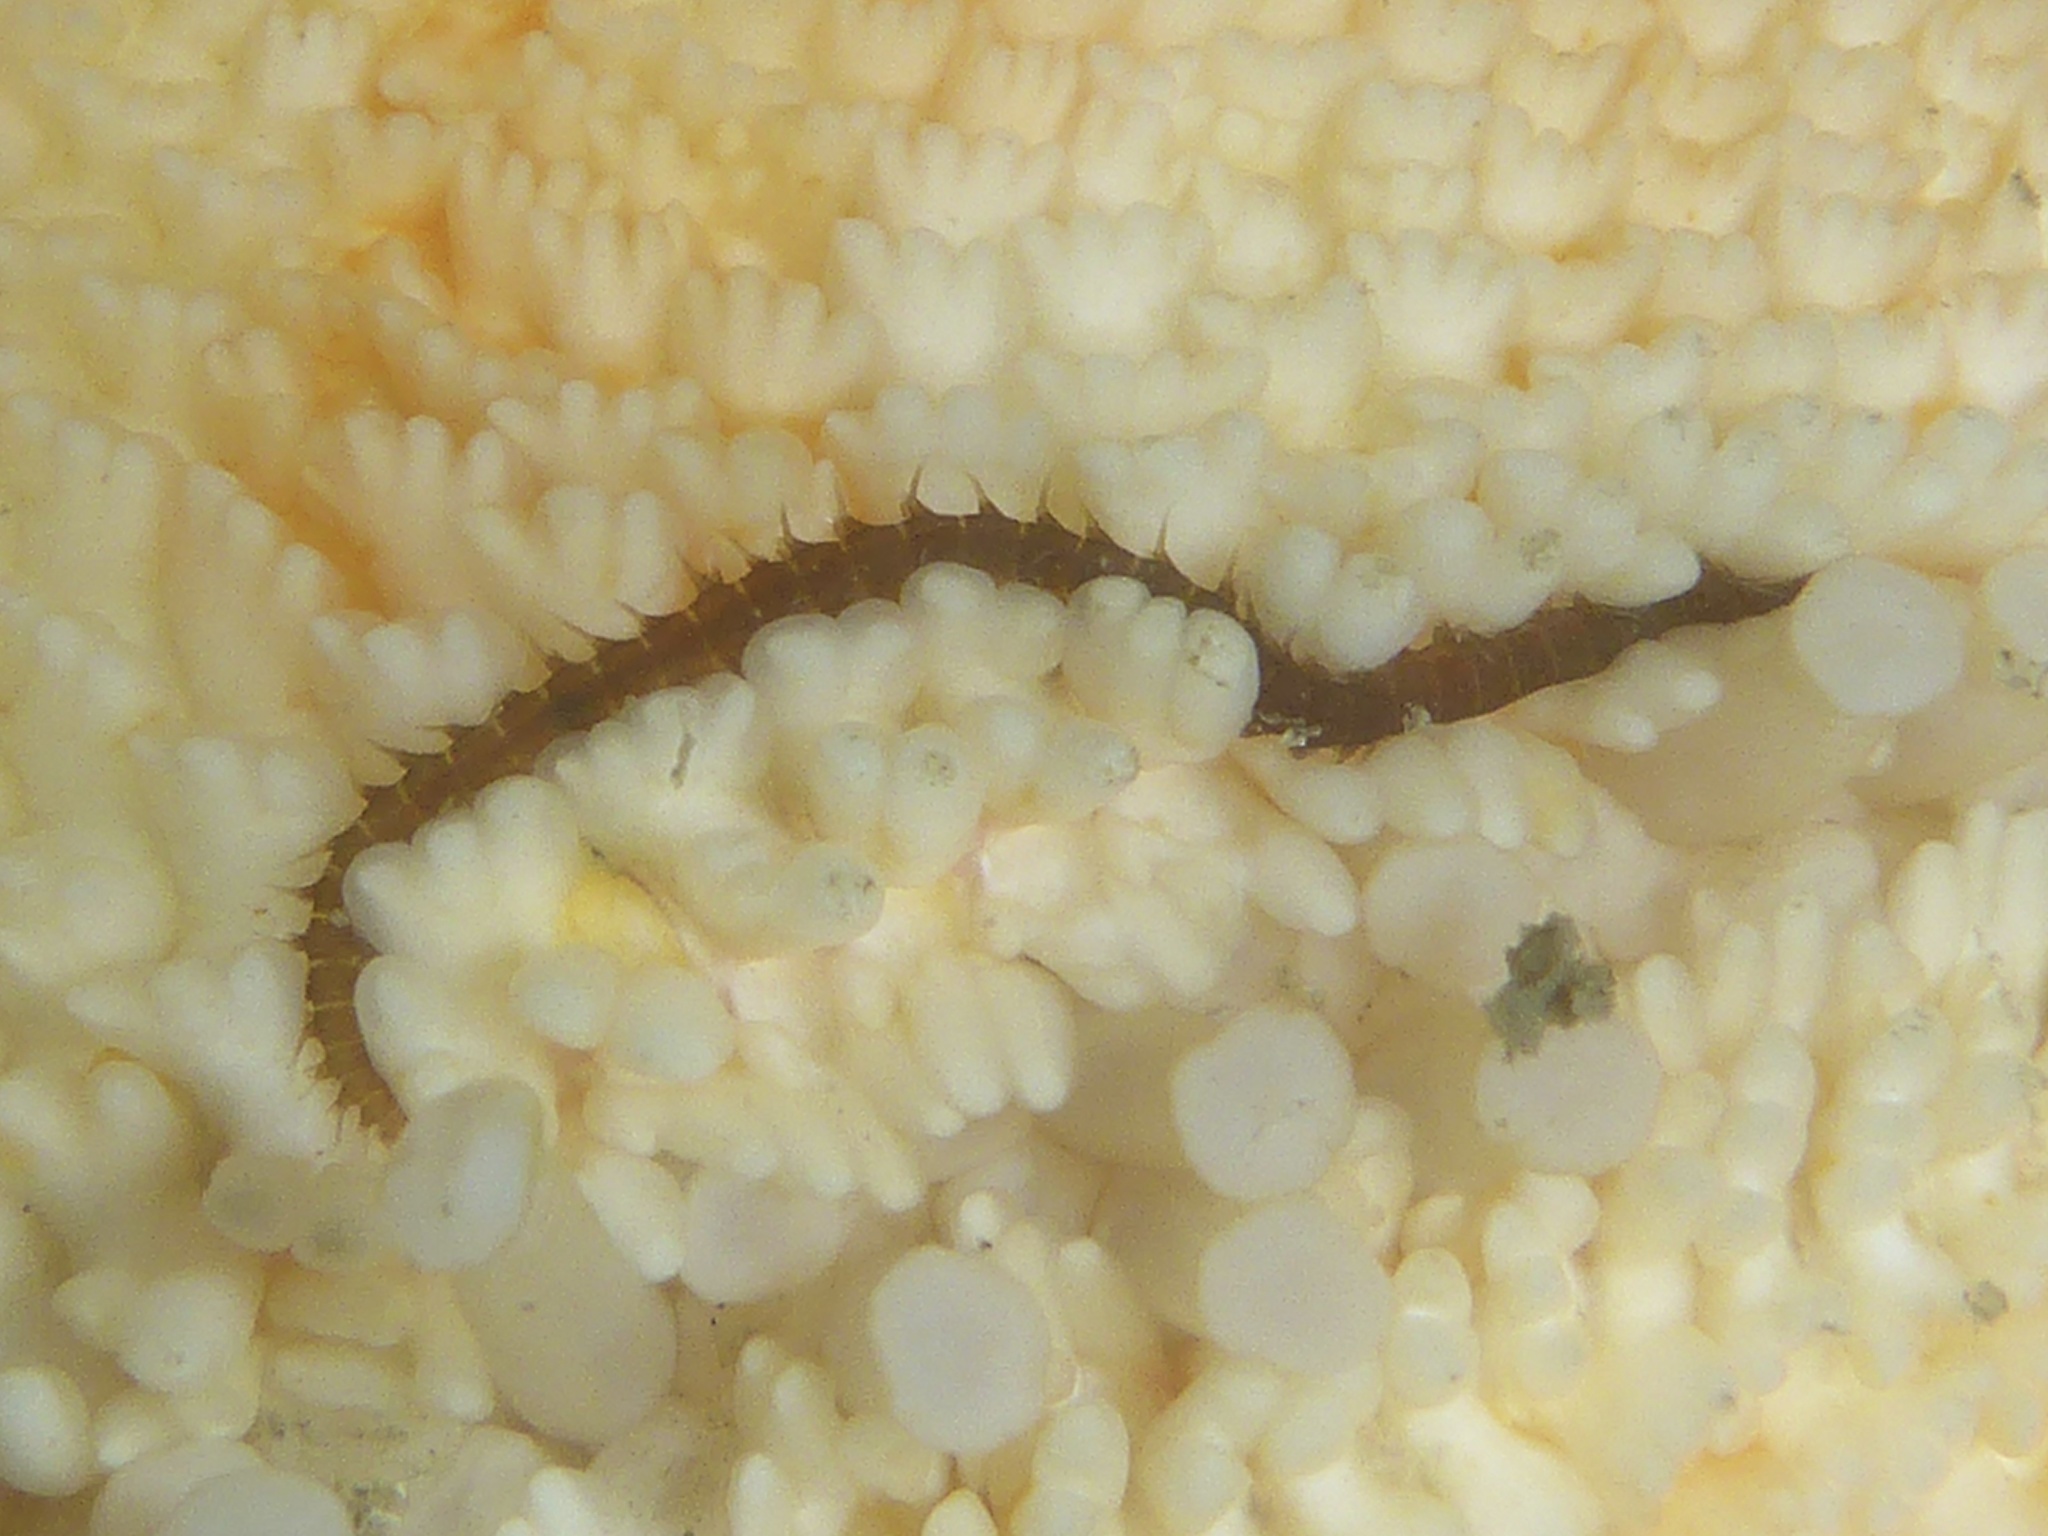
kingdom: Animalia
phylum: Annelida
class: Polychaeta
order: Phyllodocida
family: Hesionidae
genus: Oxydromus
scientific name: Oxydromus pugettensis
